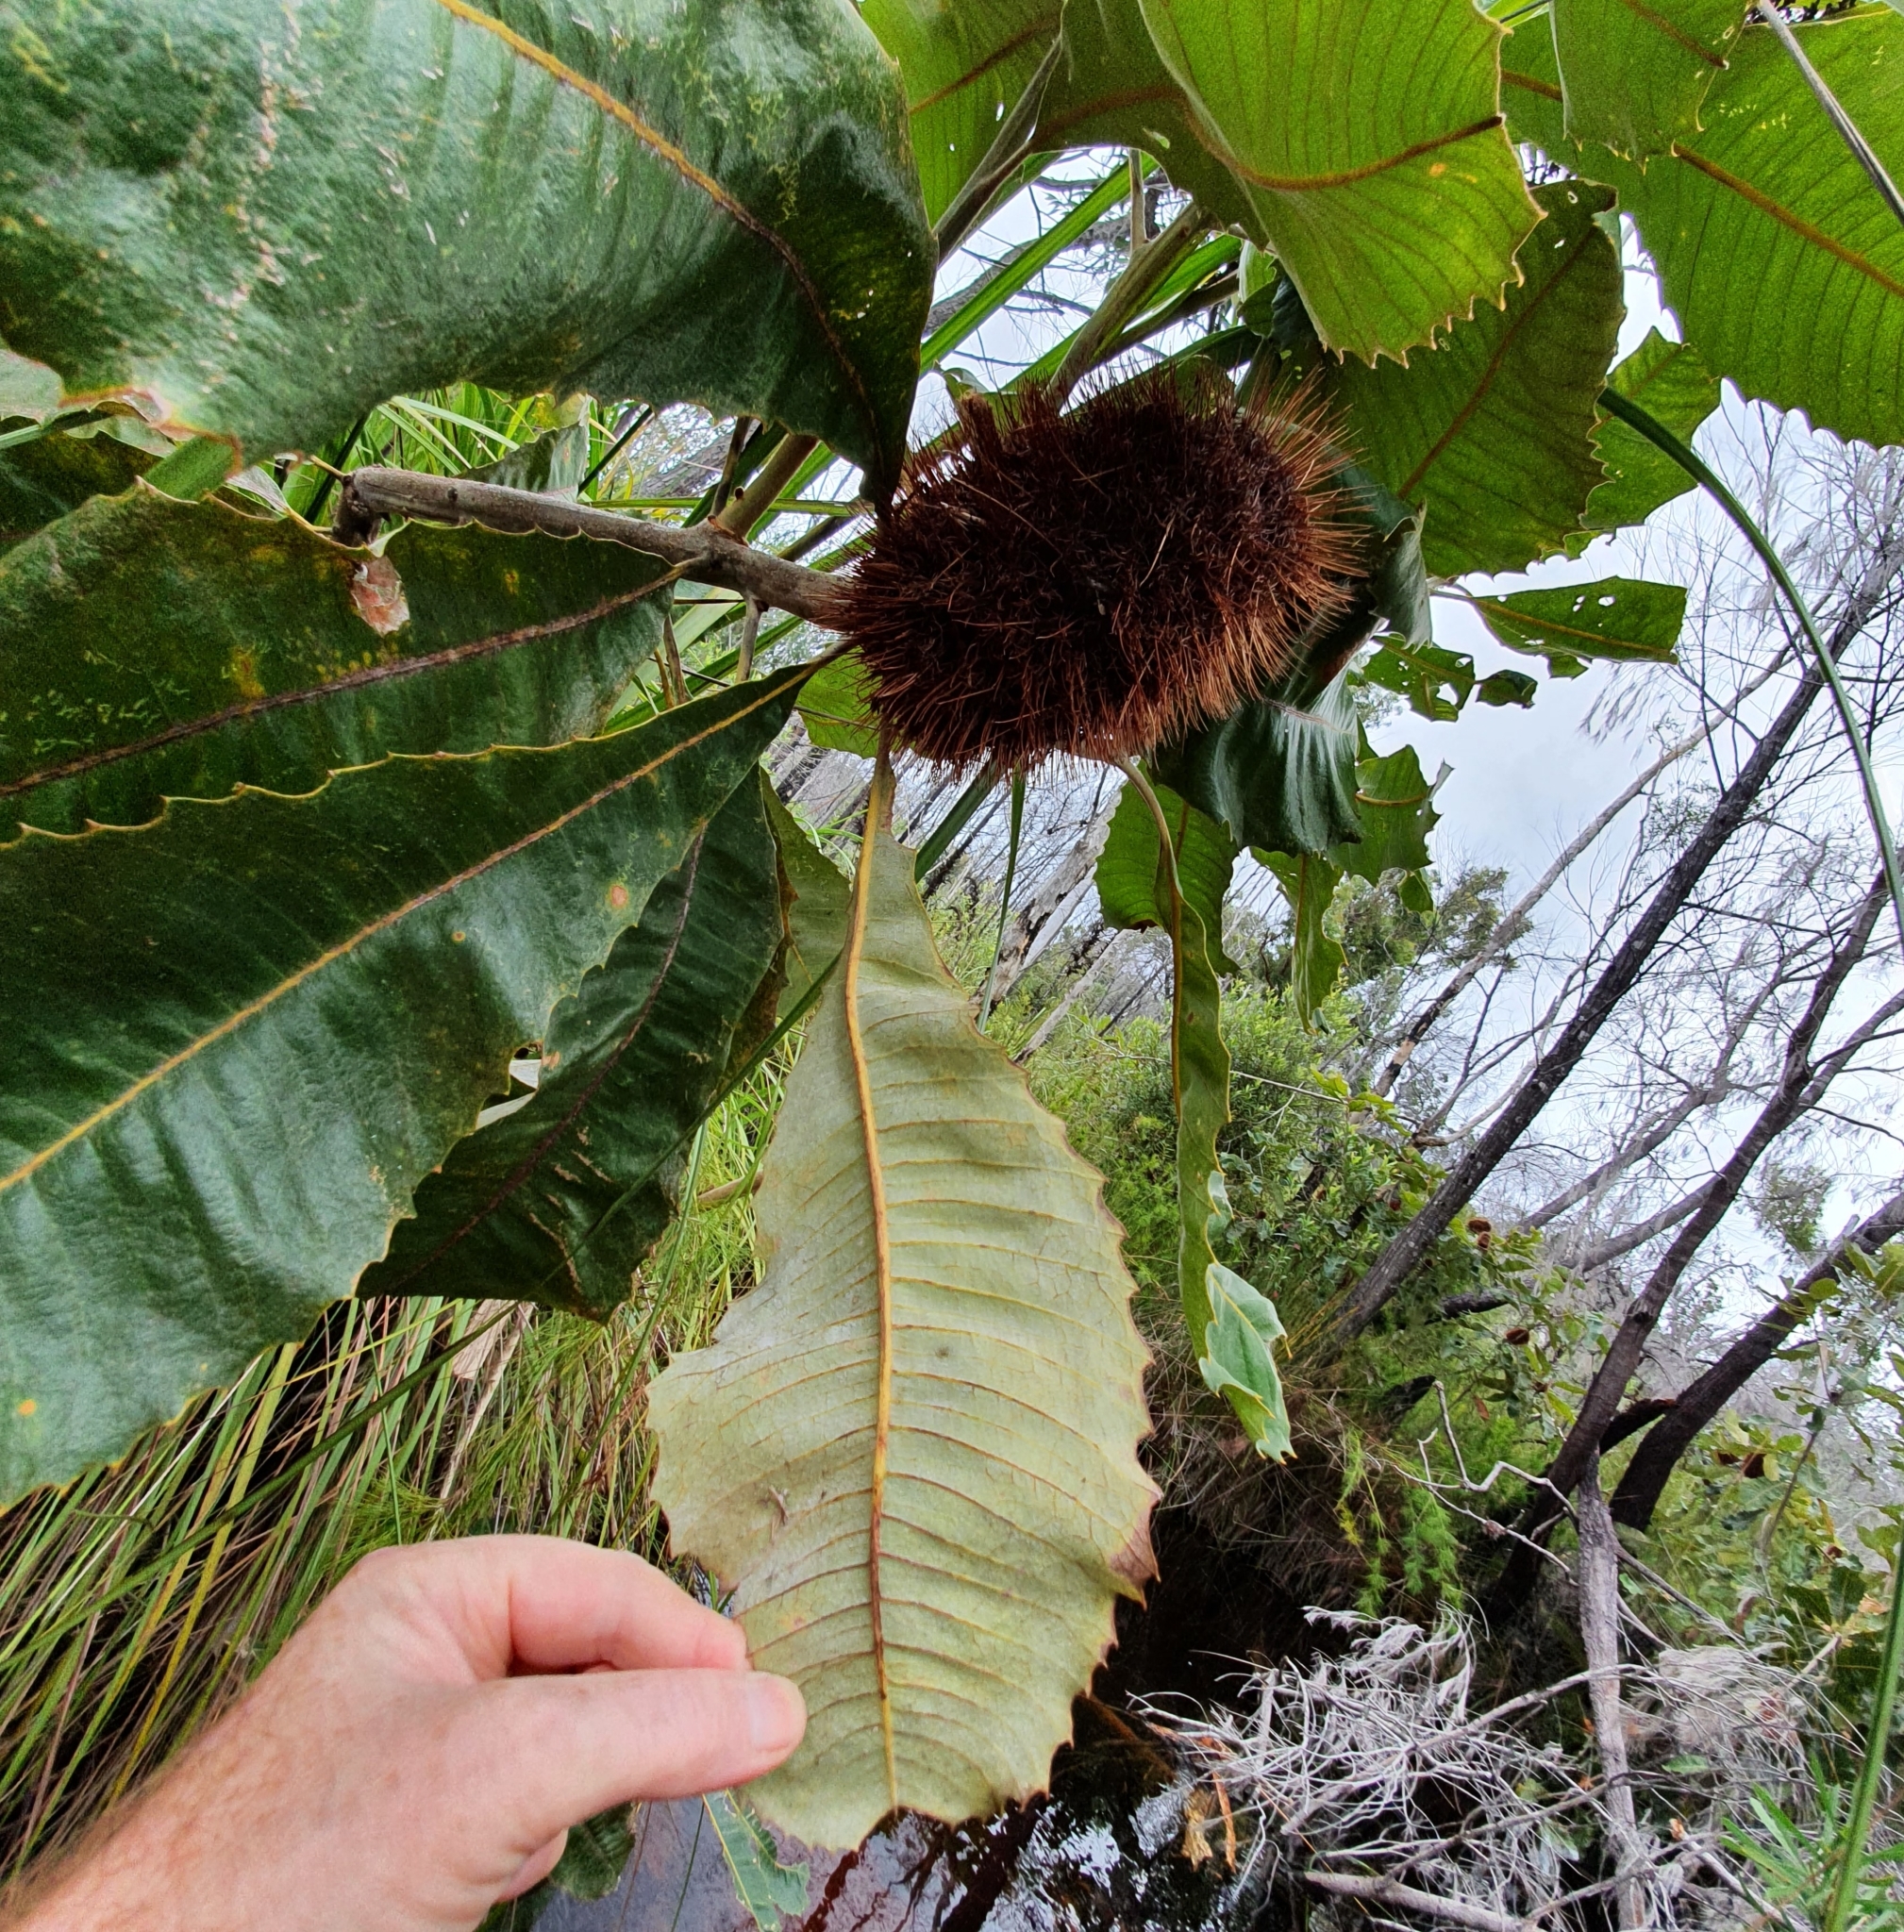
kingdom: Plantae
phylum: Tracheophyta
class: Magnoliopsida
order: Proteales
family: Proteaceae
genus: Banksia
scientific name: Banksia robur
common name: Broadleaf banksia
